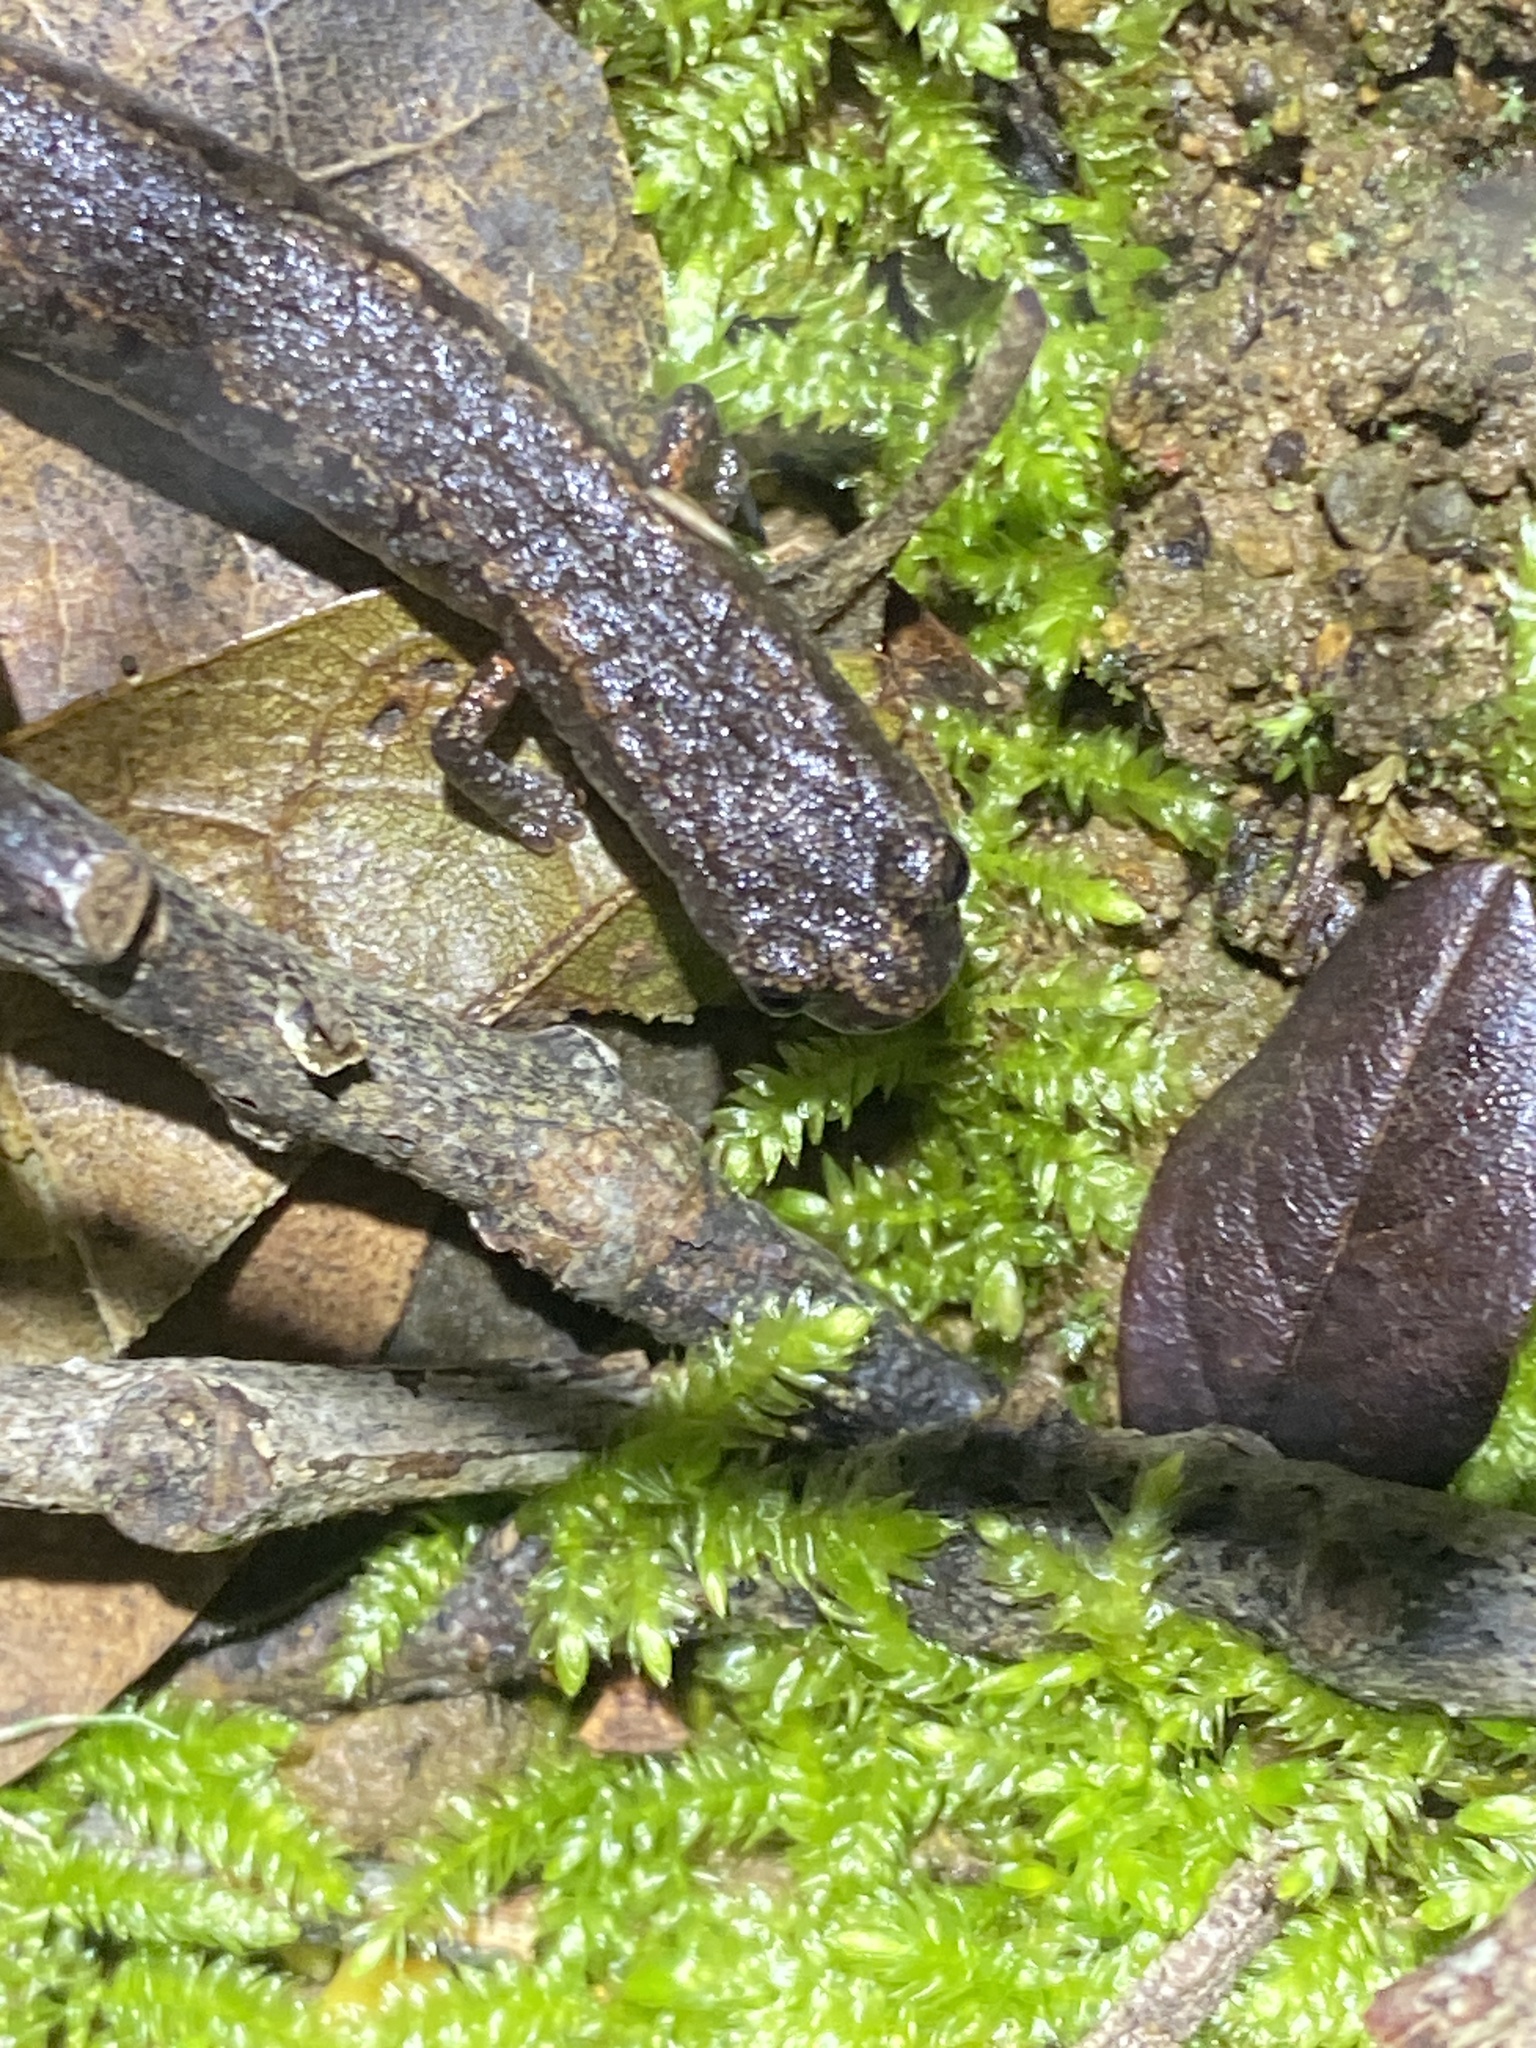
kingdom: Animalia
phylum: Chordata
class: Amphibia
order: Caudata
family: Plethodontidae
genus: Batrachoseps
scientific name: Batrachoseps attenuatus
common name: California slender salamander
